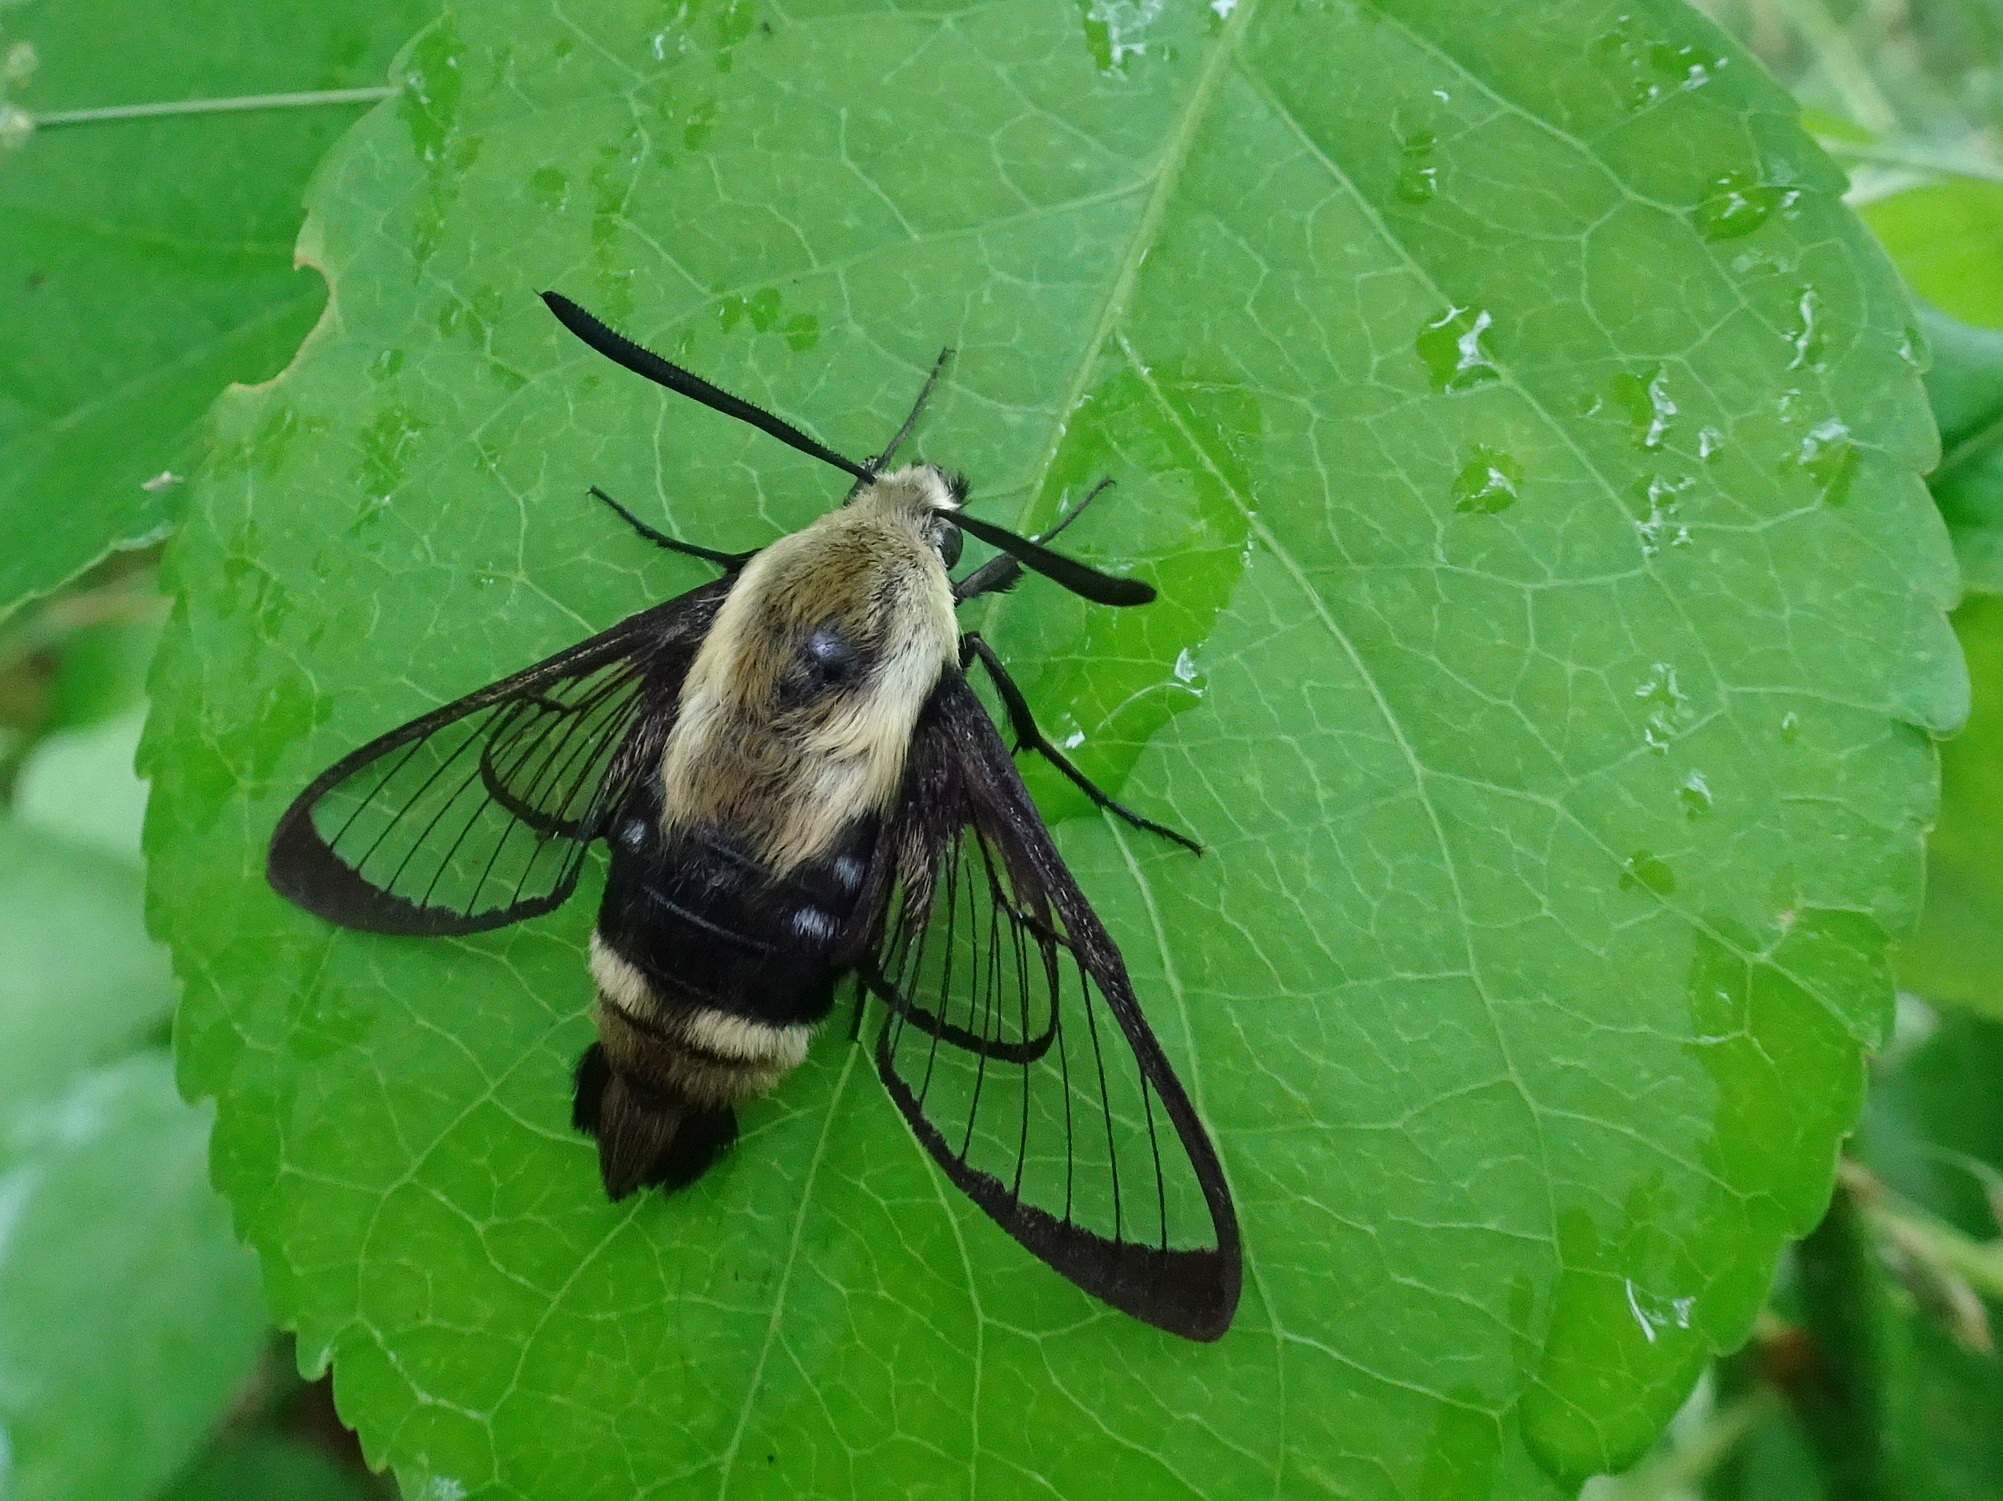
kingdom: Animalia
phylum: Arthropoda
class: Insecta
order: Lepidoptera
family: Sphingidae
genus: Hemaris
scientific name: Hemaris diffinis
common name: Bumblebee moth
